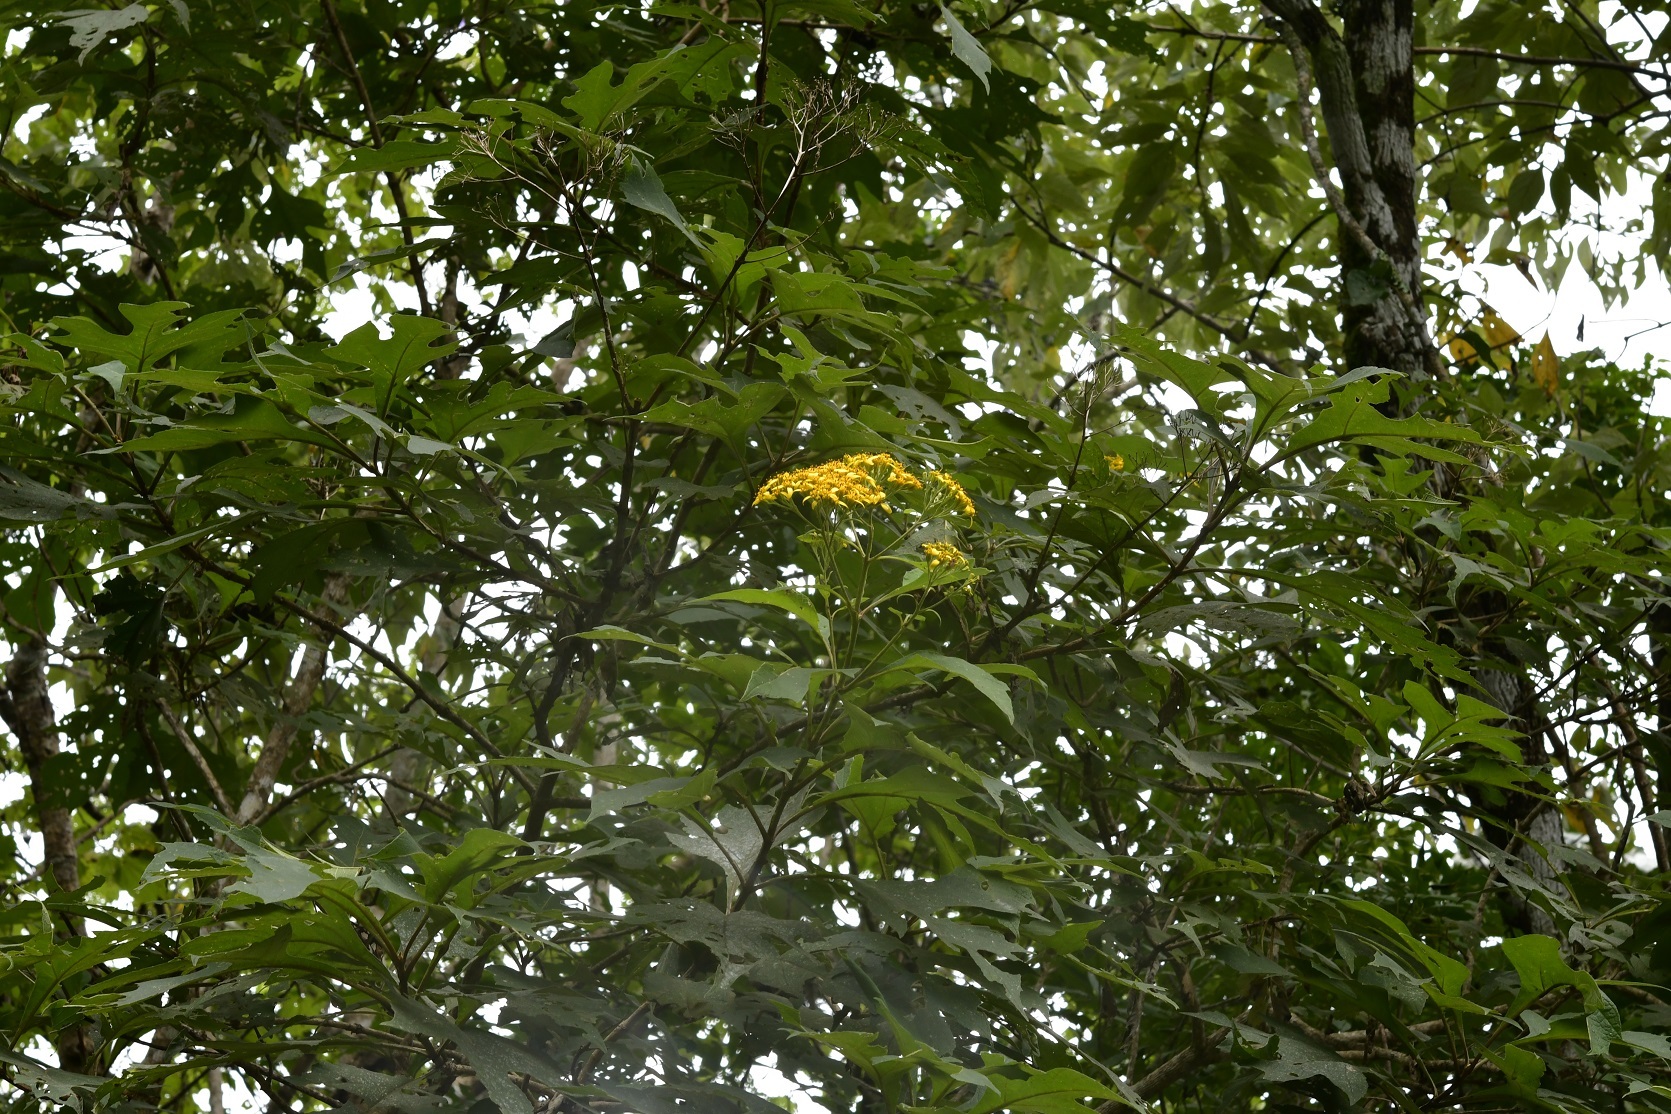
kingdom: Plantae
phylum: Tracheophyta
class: Magnoliopsida
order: Asterales
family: Asteraceae
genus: Verbesina
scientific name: Verbesina breedlovei
